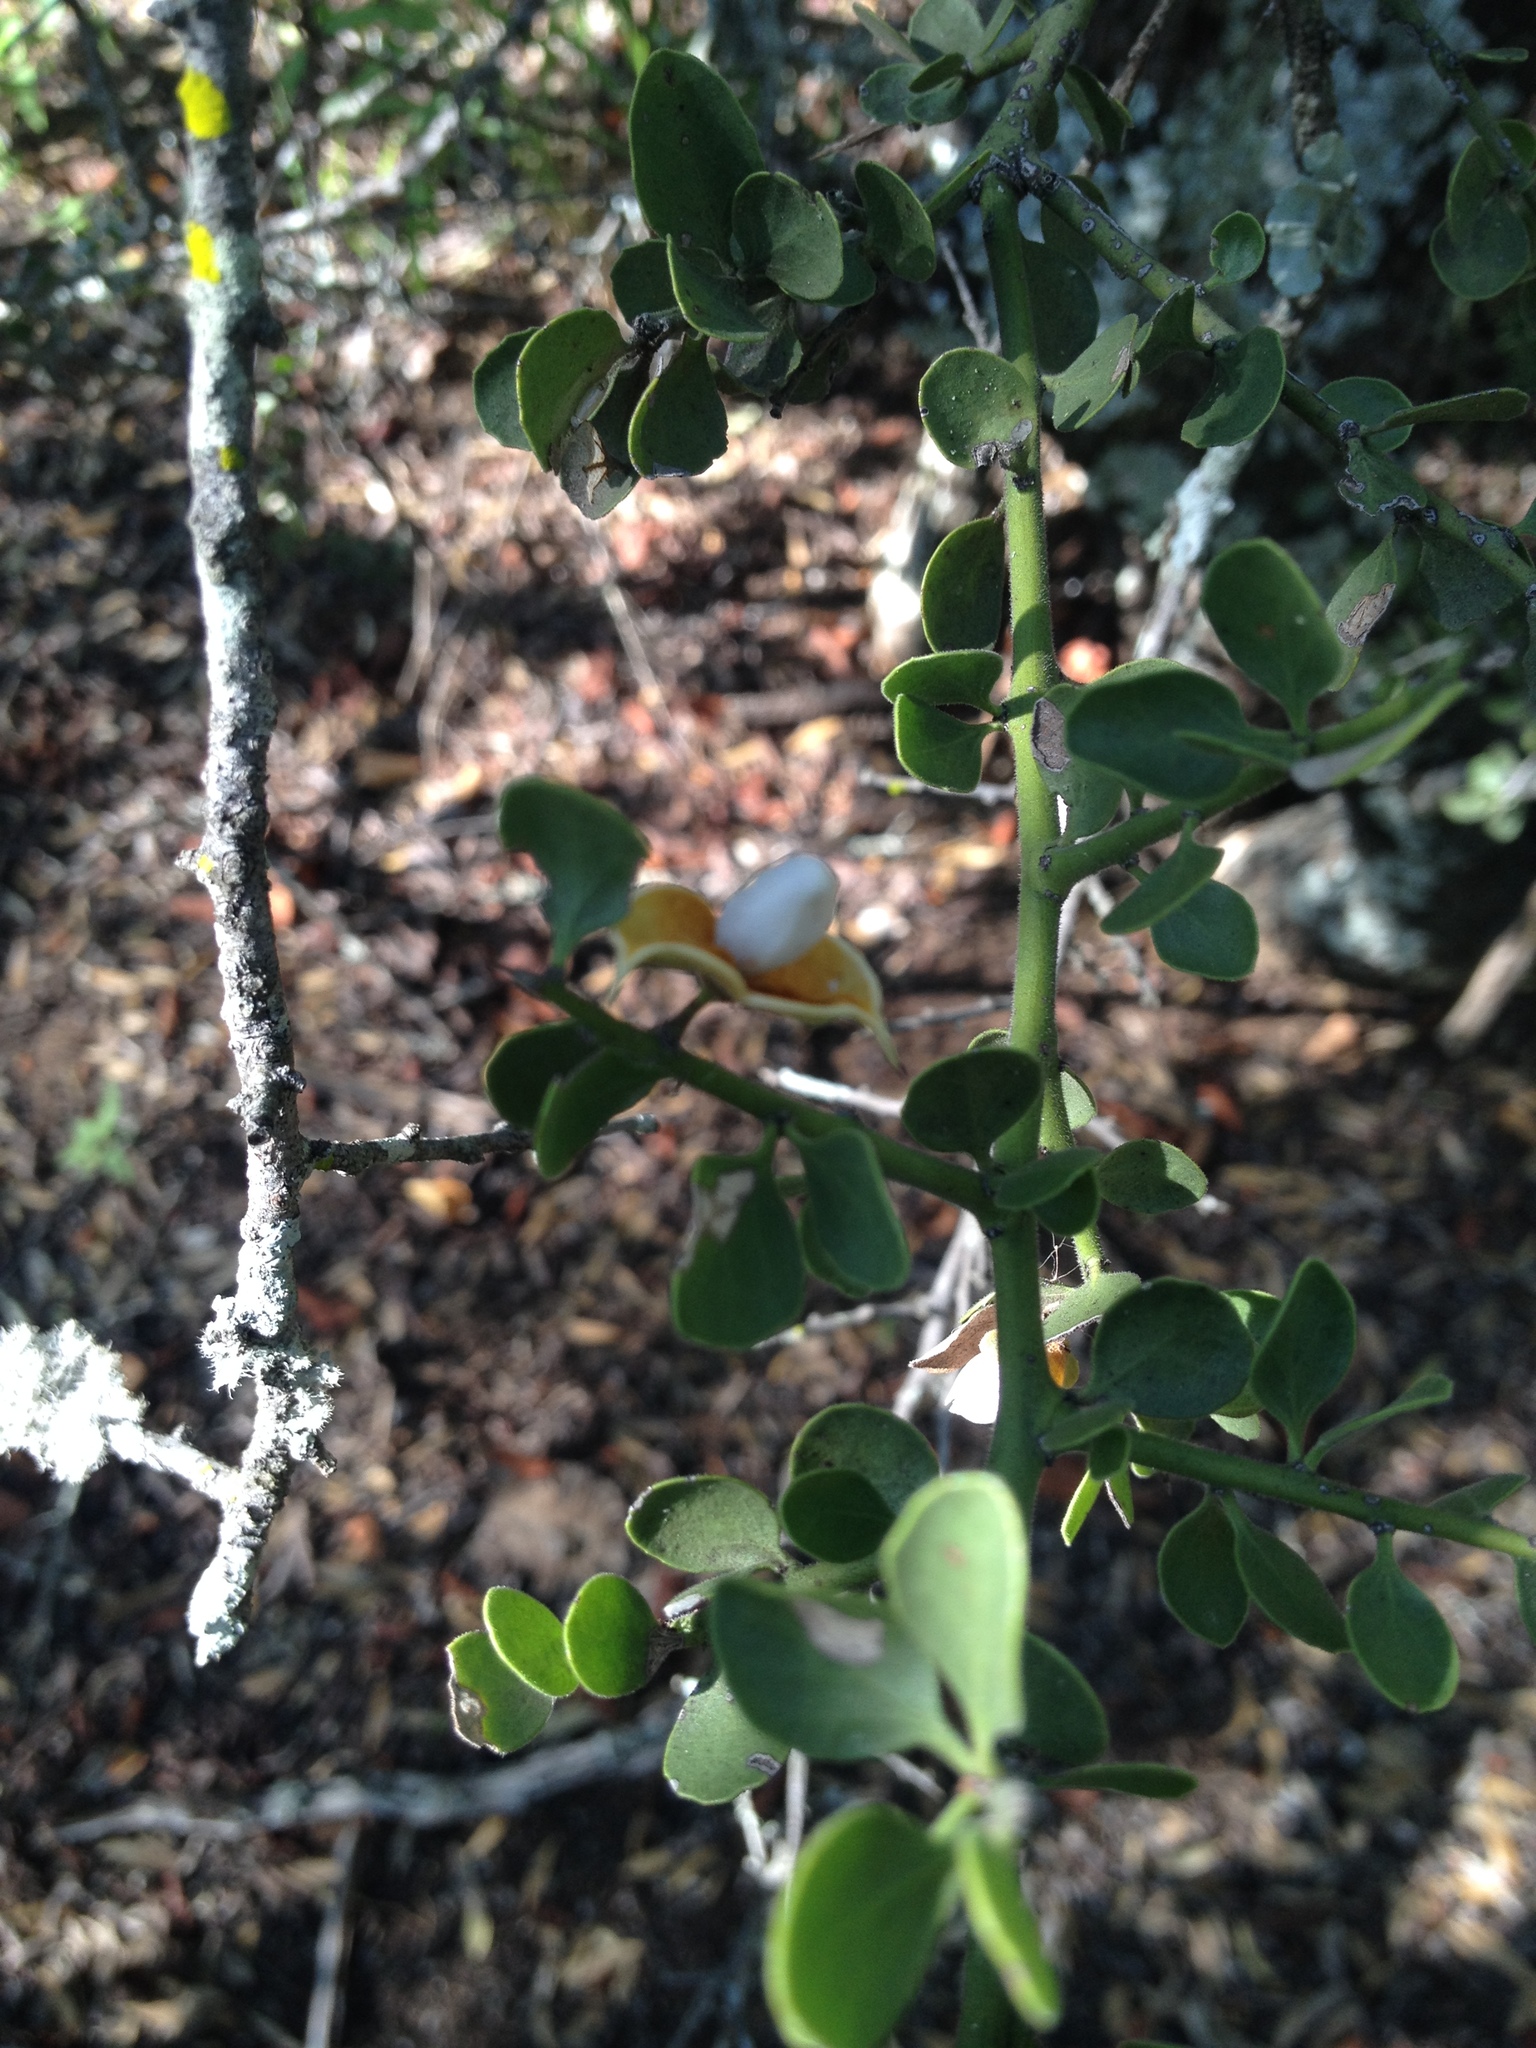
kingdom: Plantae
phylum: Tracheophyta
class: Magnoliopsida
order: Celastrales
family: Celastraceae
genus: Monteverdia
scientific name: Monteverdia spinosa
